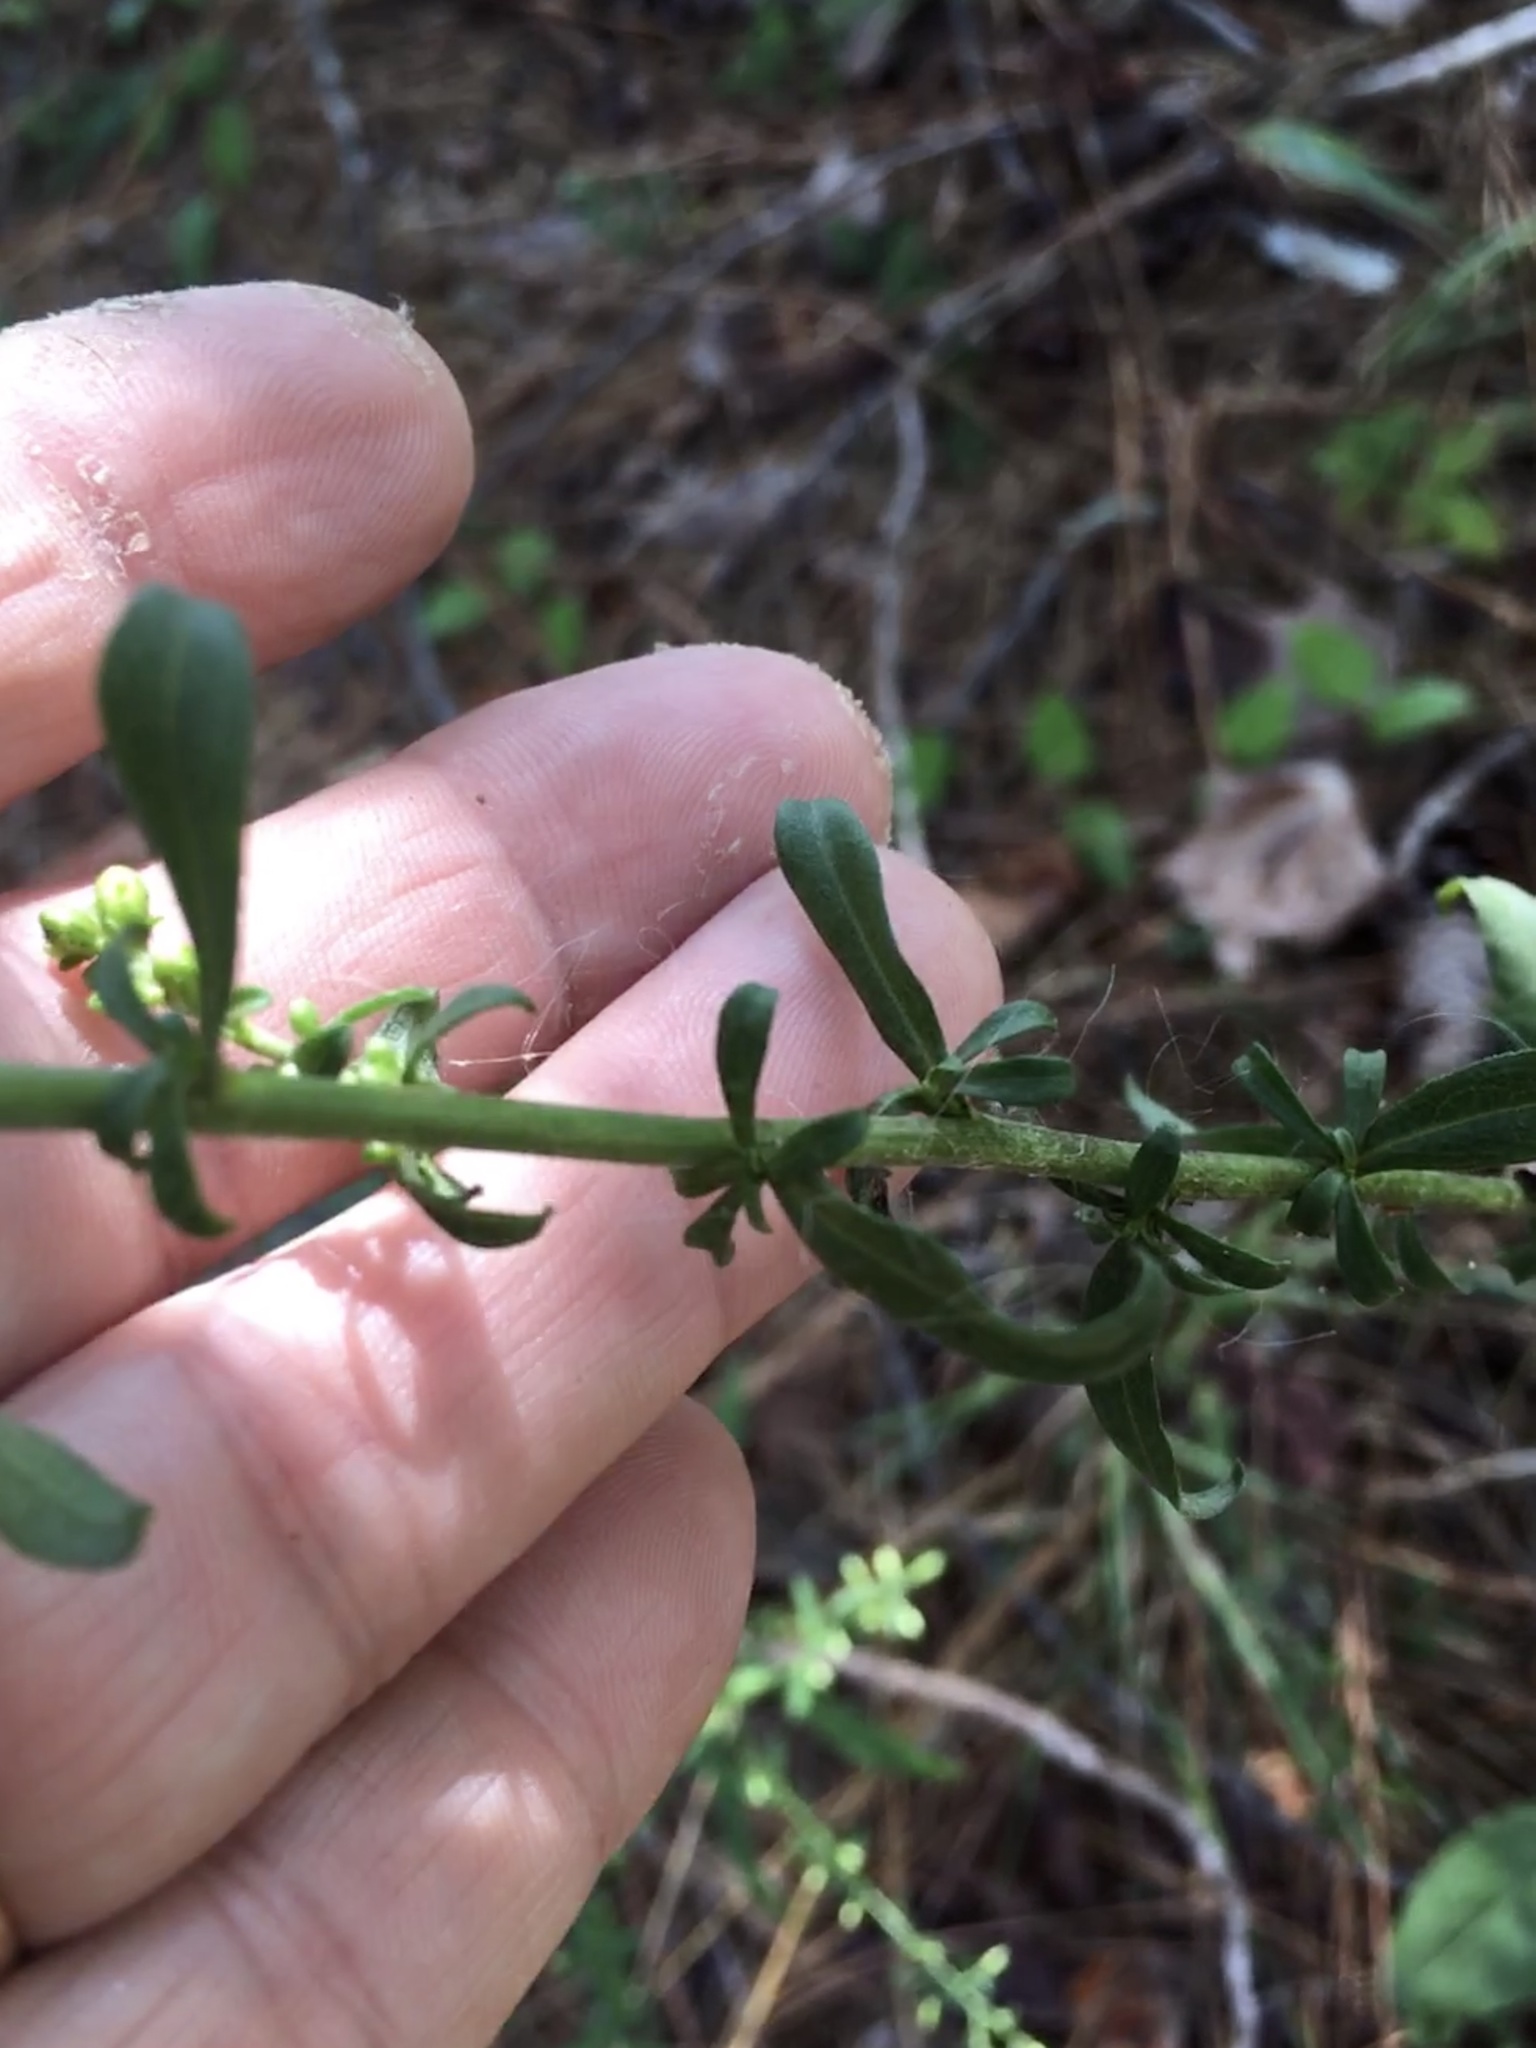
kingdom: Plantae
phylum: Tracheophyta
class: Magnoliopsida
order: Asterales
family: Asteraceae
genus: Solidago
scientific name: Solidago erecta
